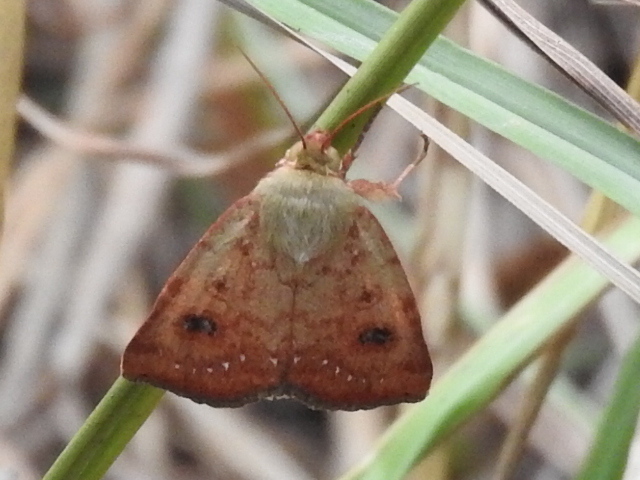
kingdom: Animalia
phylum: Arthropoda
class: Insecta
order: Lepidoptera
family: Noctuidae
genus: Heliocheilus
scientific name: Heliocheilus lupata
